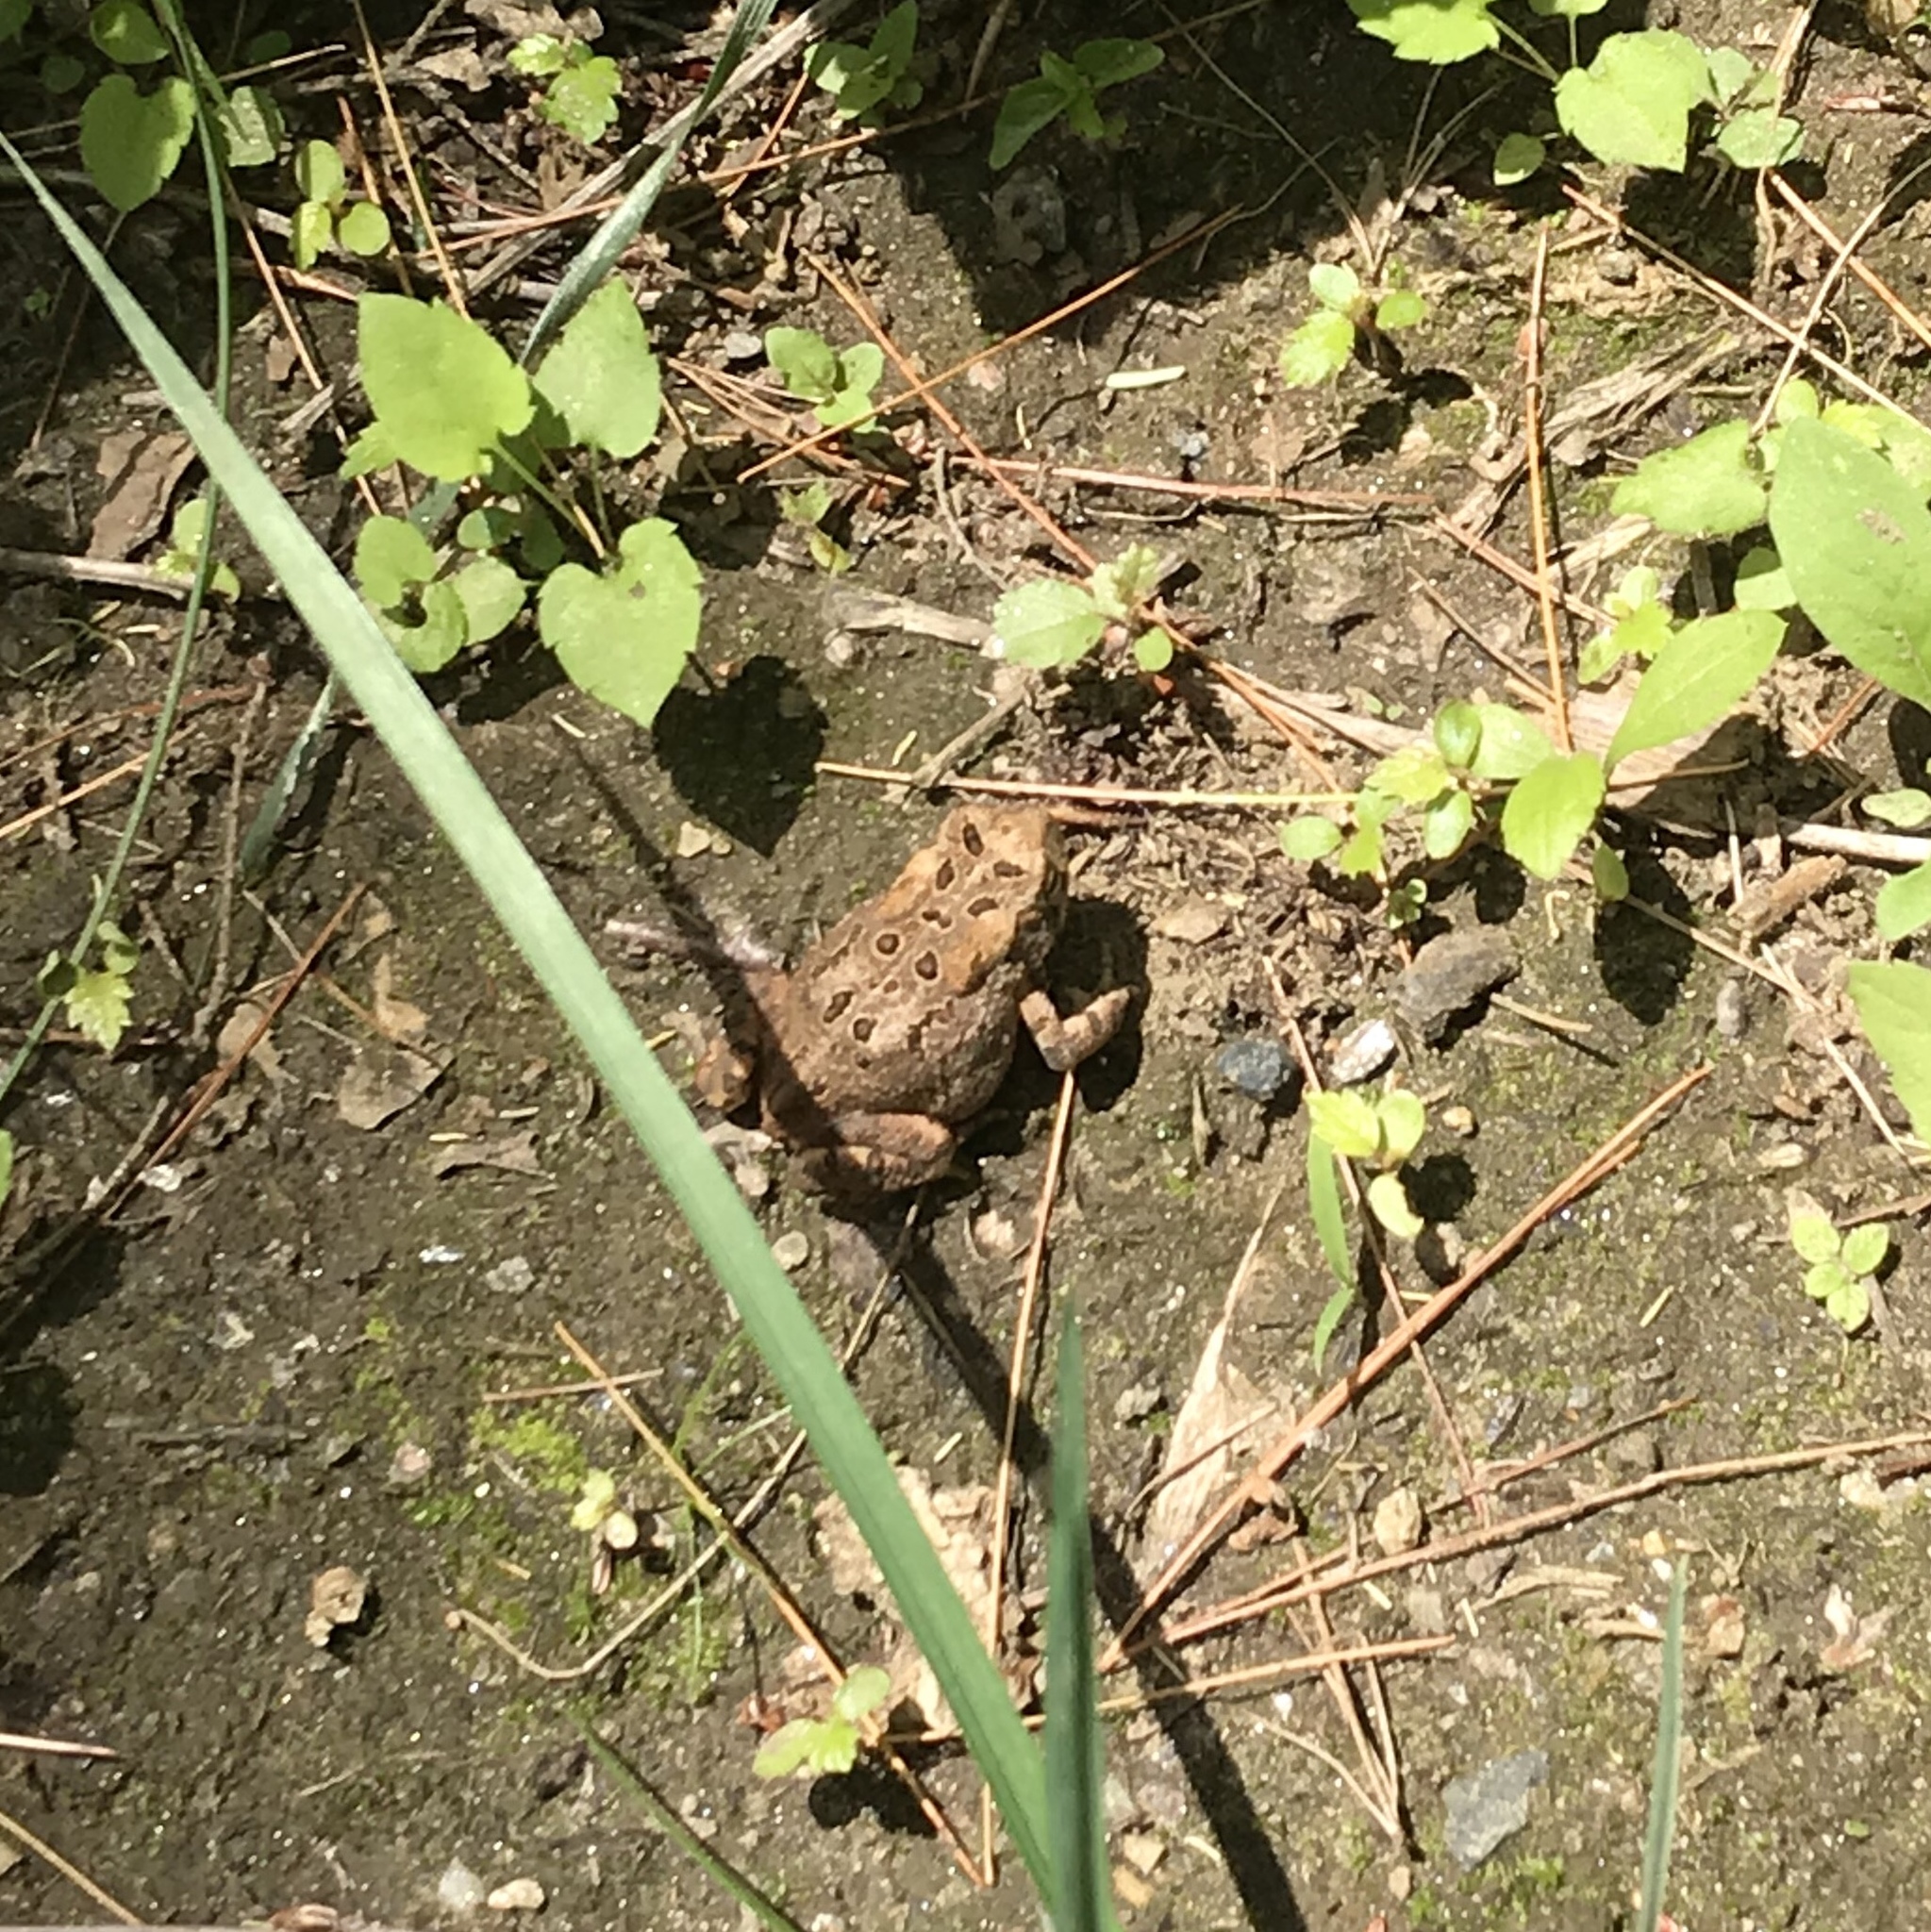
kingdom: Animalia
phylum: Chordata
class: Amphibia
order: Anura
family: Bufonidae
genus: Anaxyrus
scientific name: Anaxyrus americanus
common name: American toad
